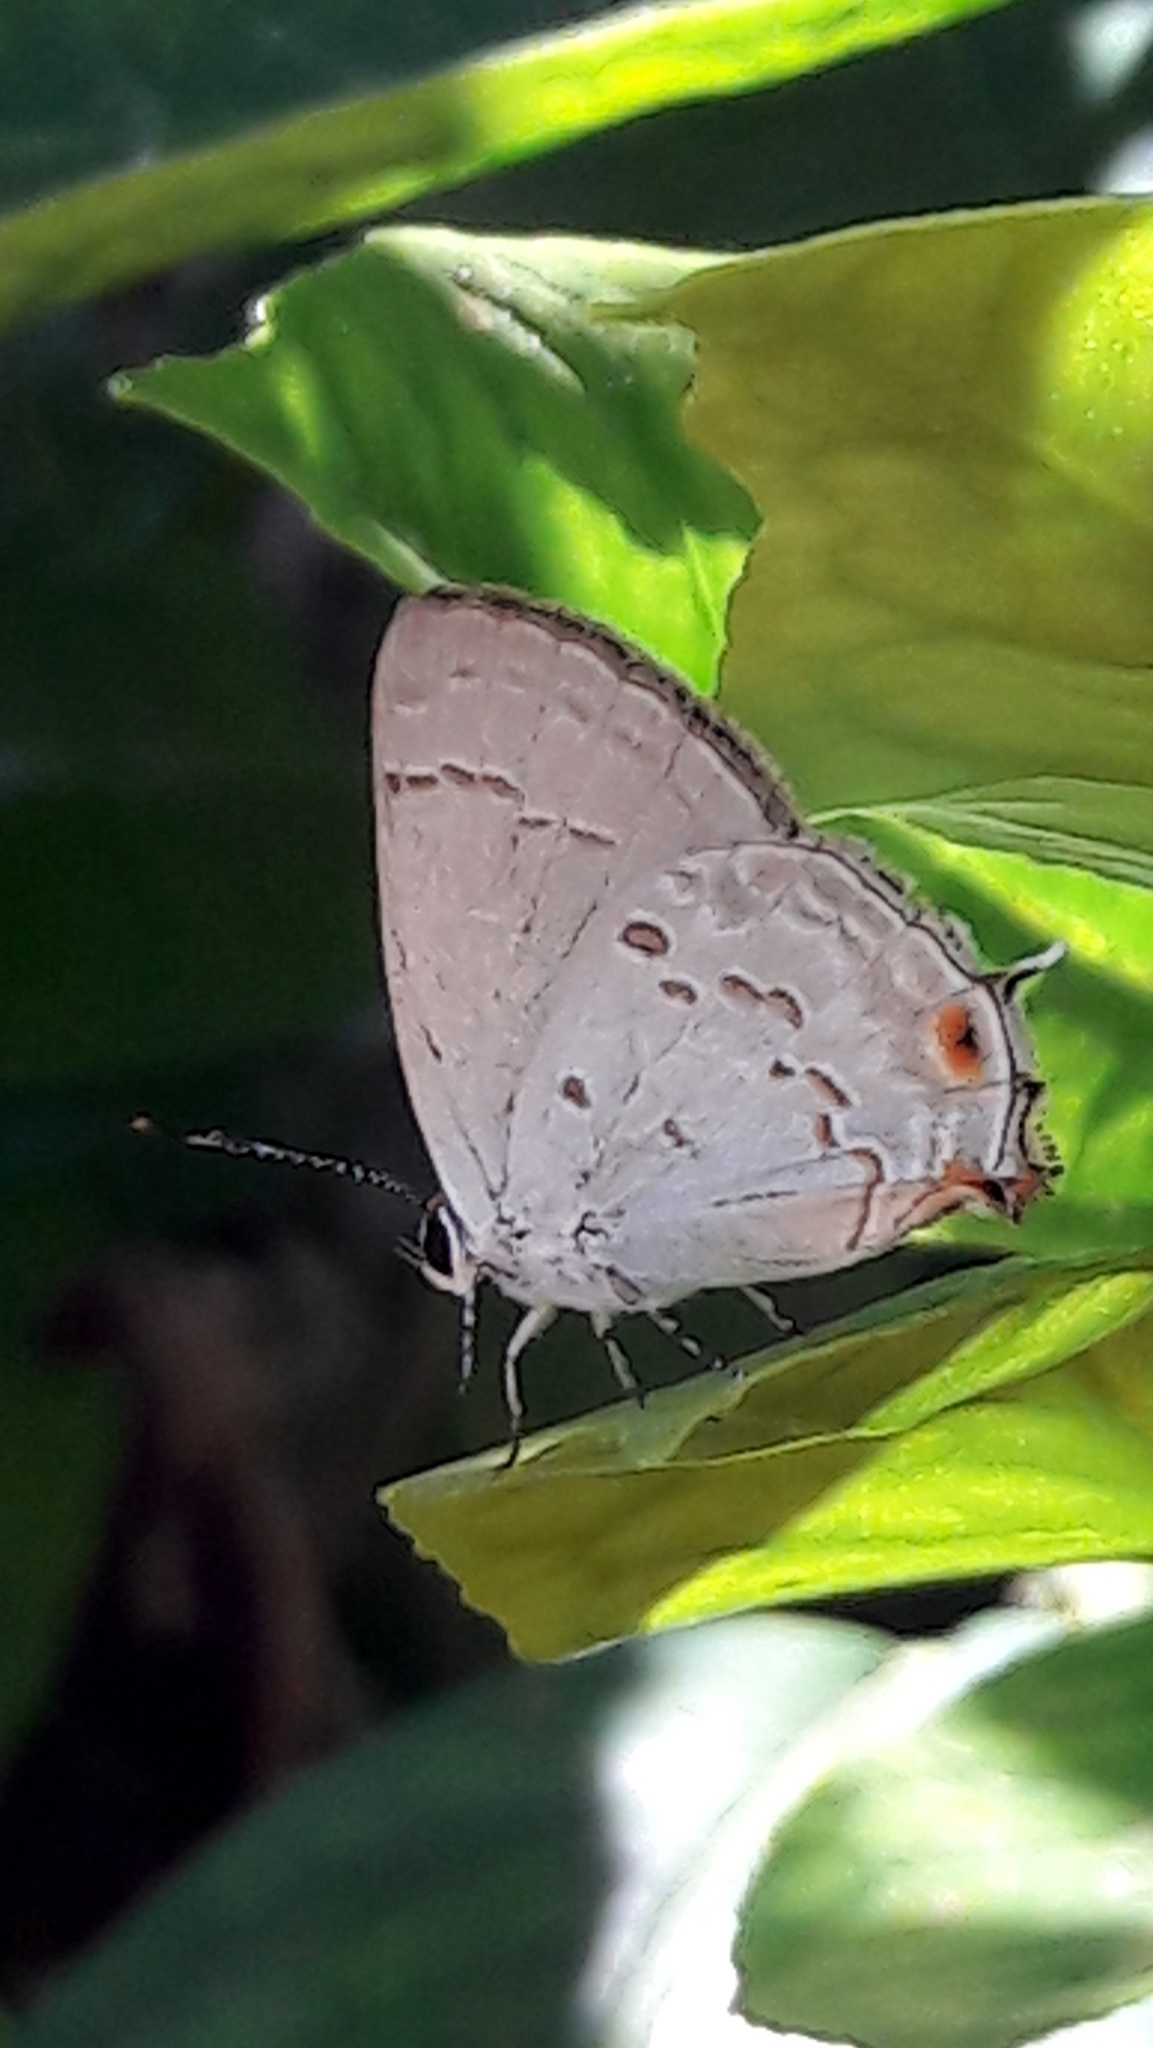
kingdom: Animalia
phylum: Arthropoda
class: Insecta
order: Lepidoptera
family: Lycaenidae
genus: Strymon
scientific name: Strymon
